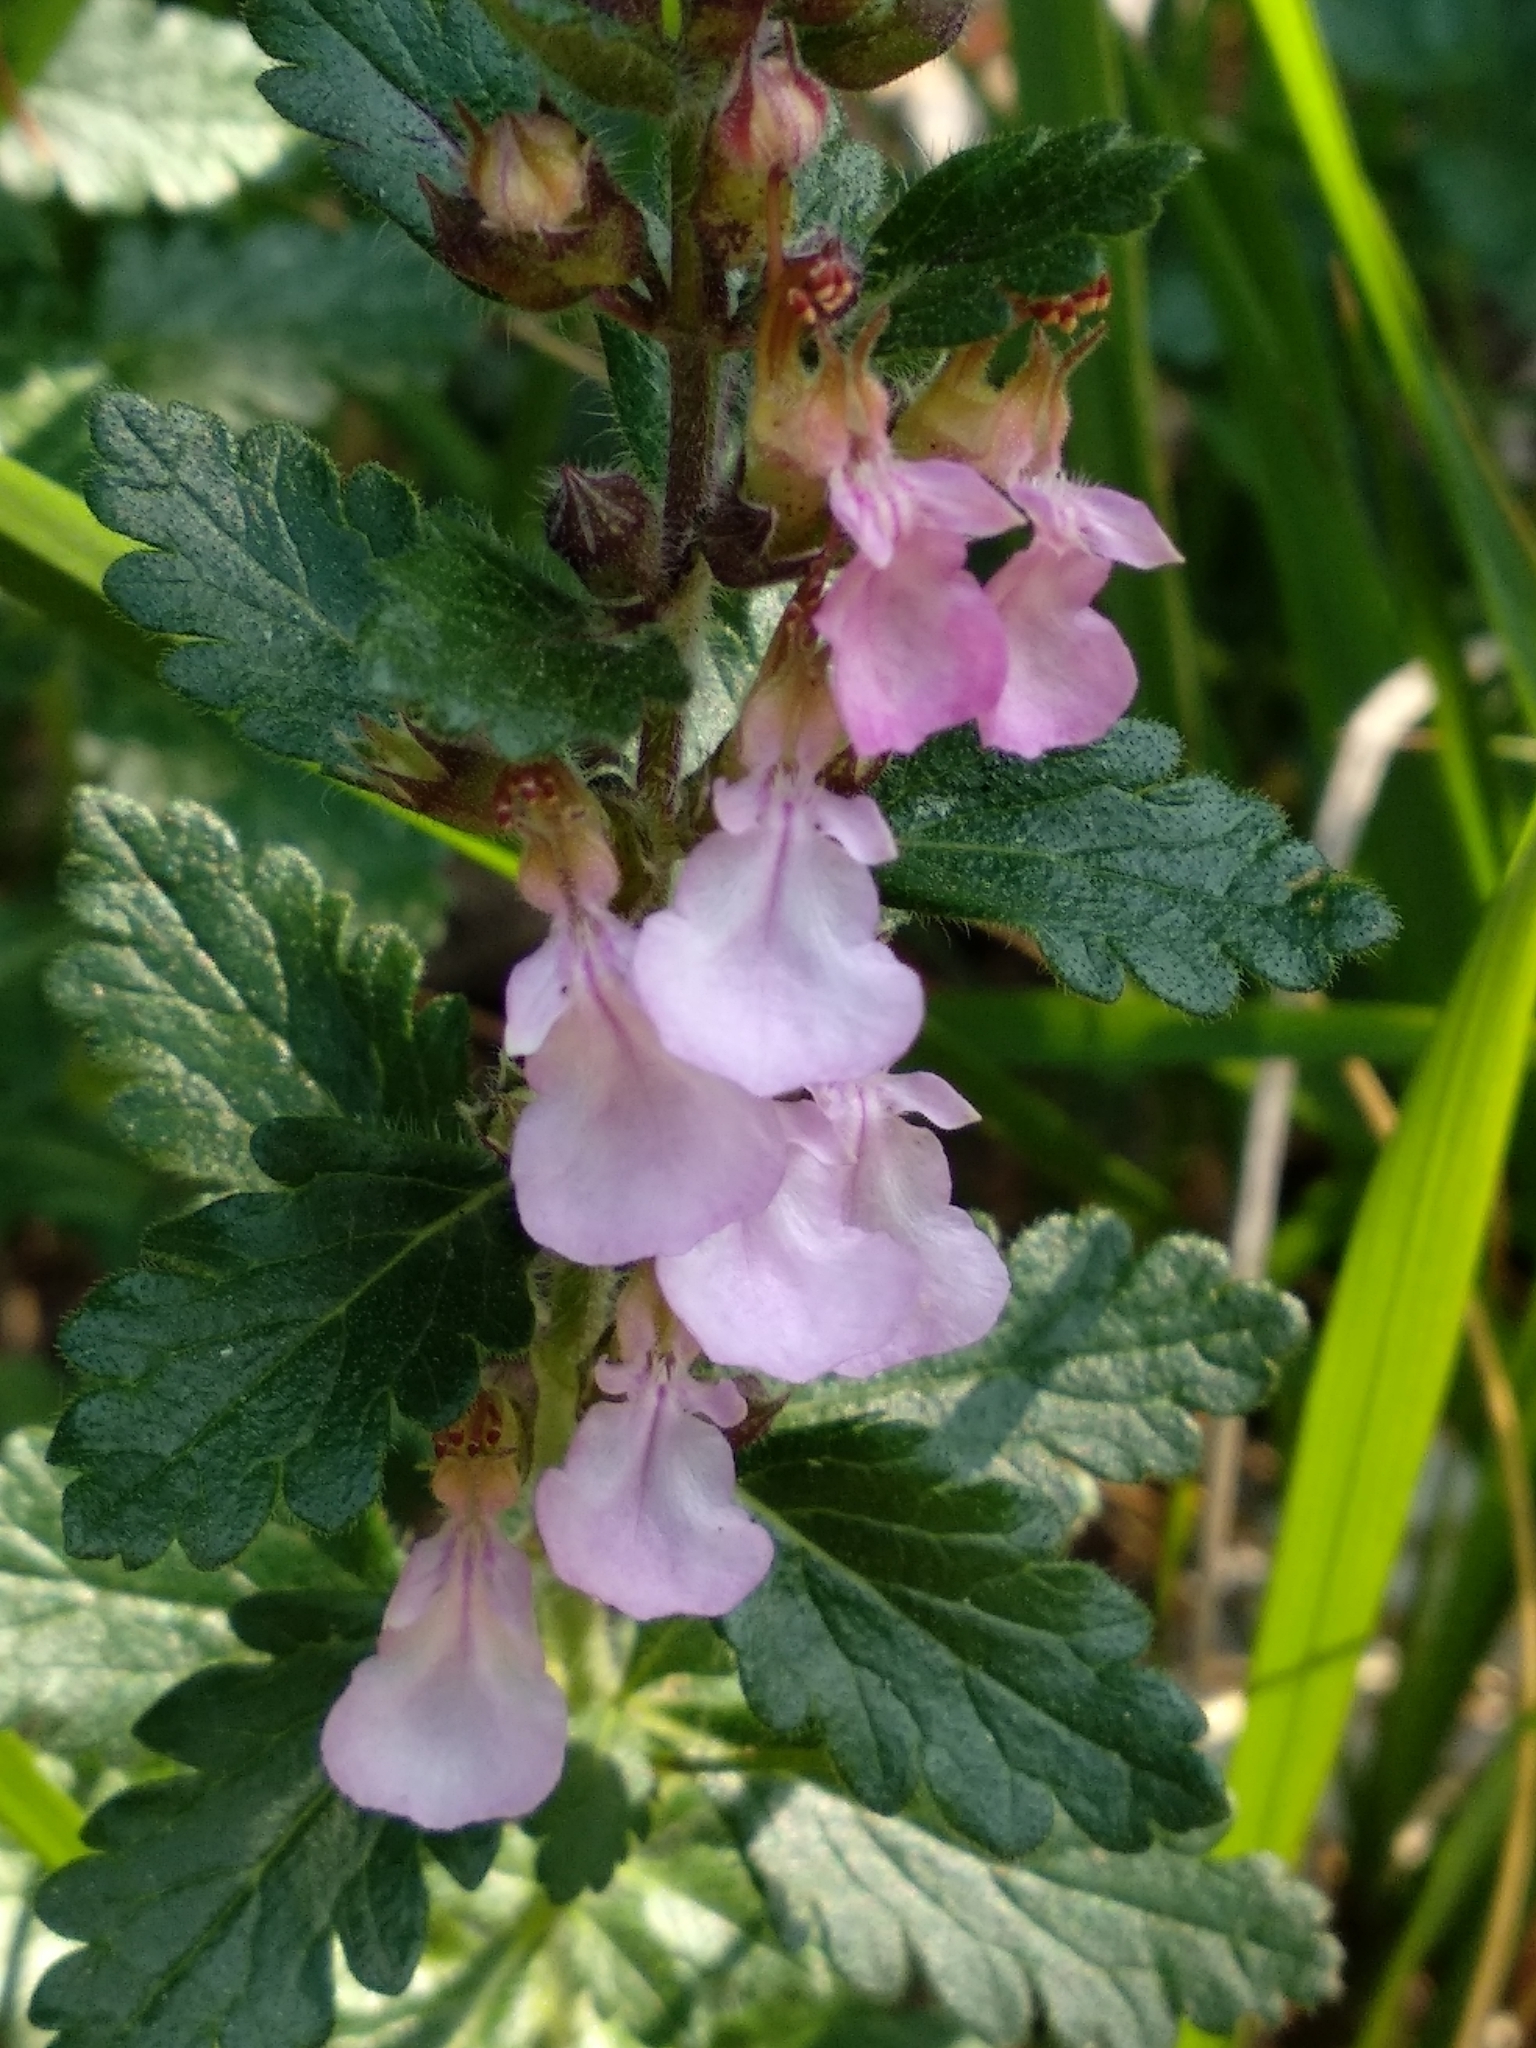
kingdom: Plantae
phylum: Tracheophyta
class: Magnoliopsida
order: Lamiales
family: Lamiaceae
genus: Teucrium
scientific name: Teucrium chamaedrys
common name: Wall germander
